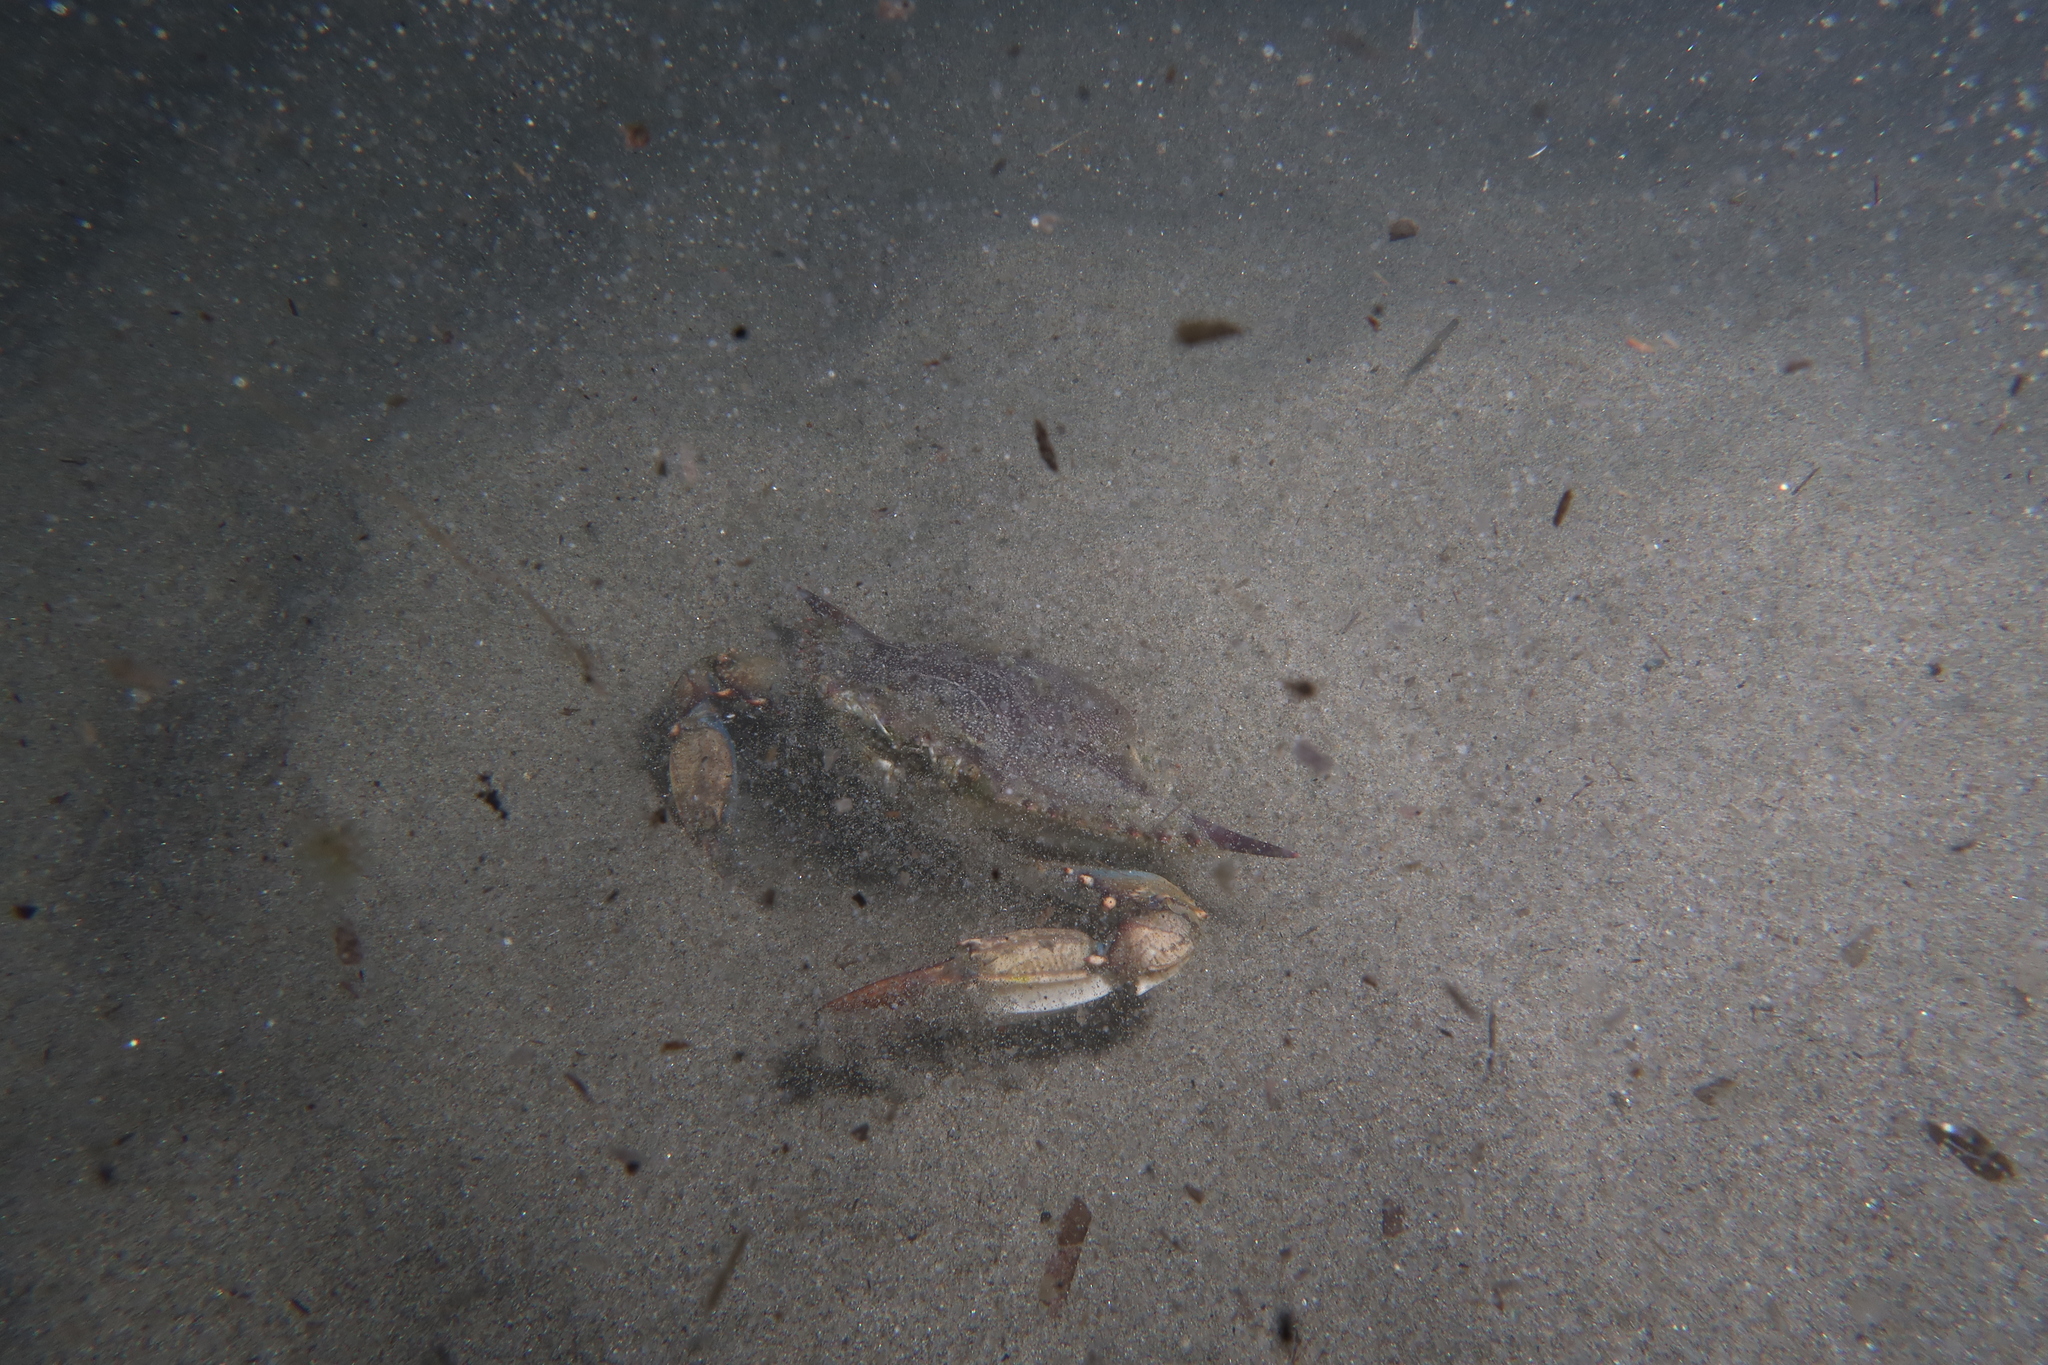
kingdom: Animalia
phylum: Arthropoda
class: Malacostraca
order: Decapoda
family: Portunidae
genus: Callinectes
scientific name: Callinectes sapidus
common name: Blue crab
